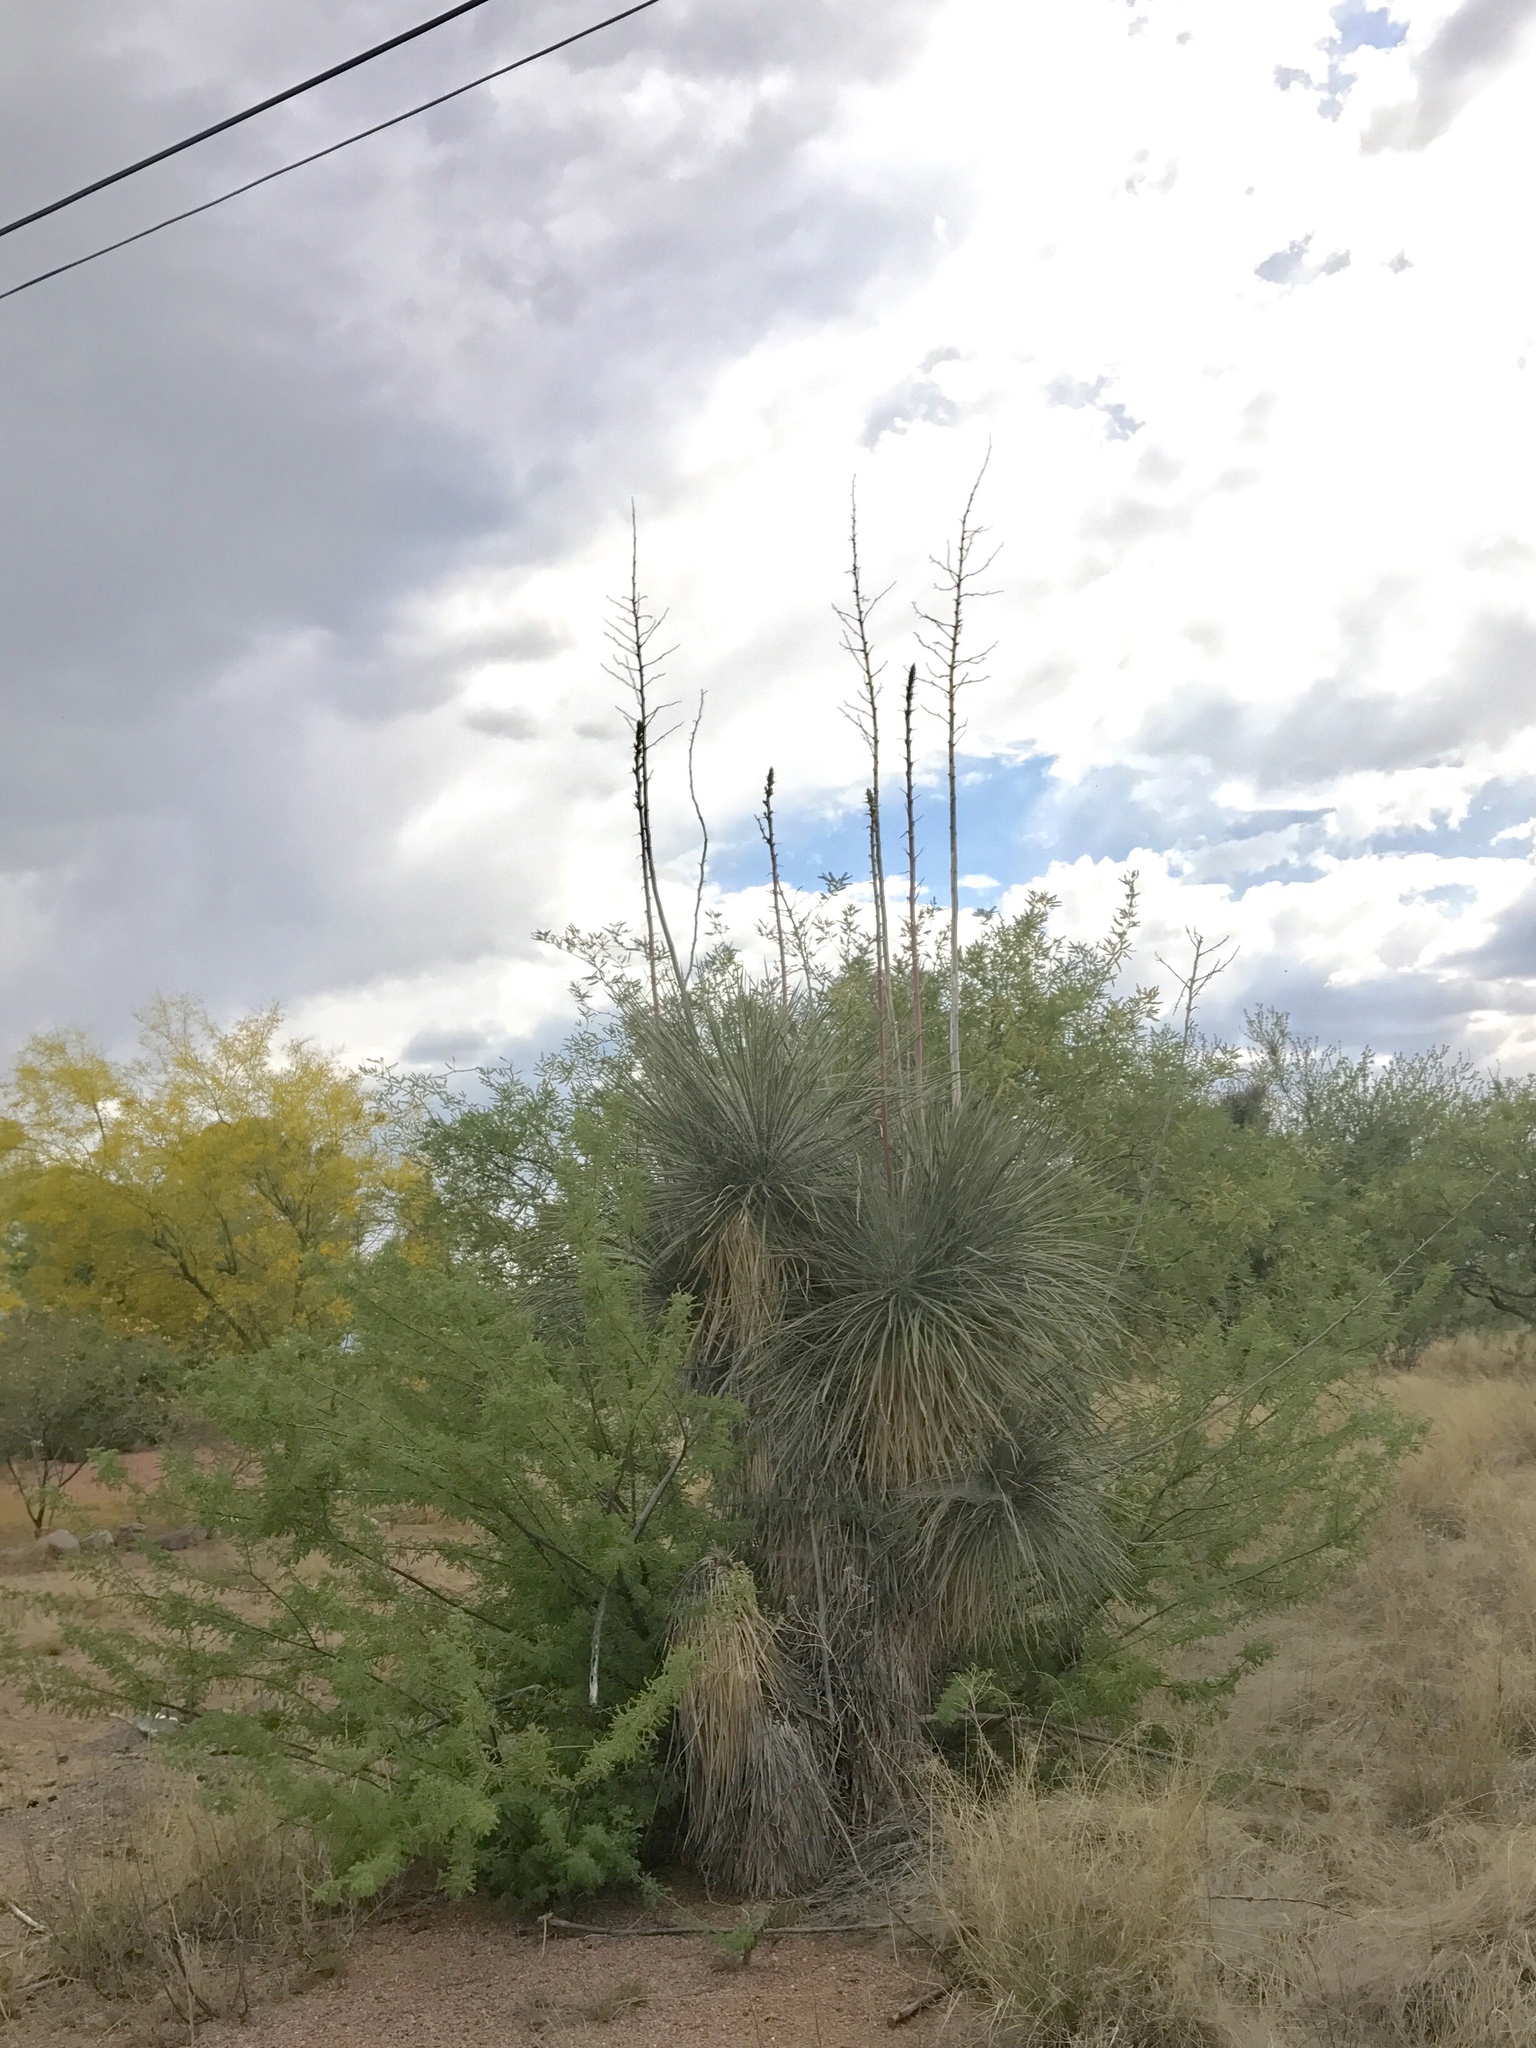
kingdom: Plantae
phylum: Tracheophyta
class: Liliopsida
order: Asparagales
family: Asparagaceae
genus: Yucca
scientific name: Yucca elata
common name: Palmella
